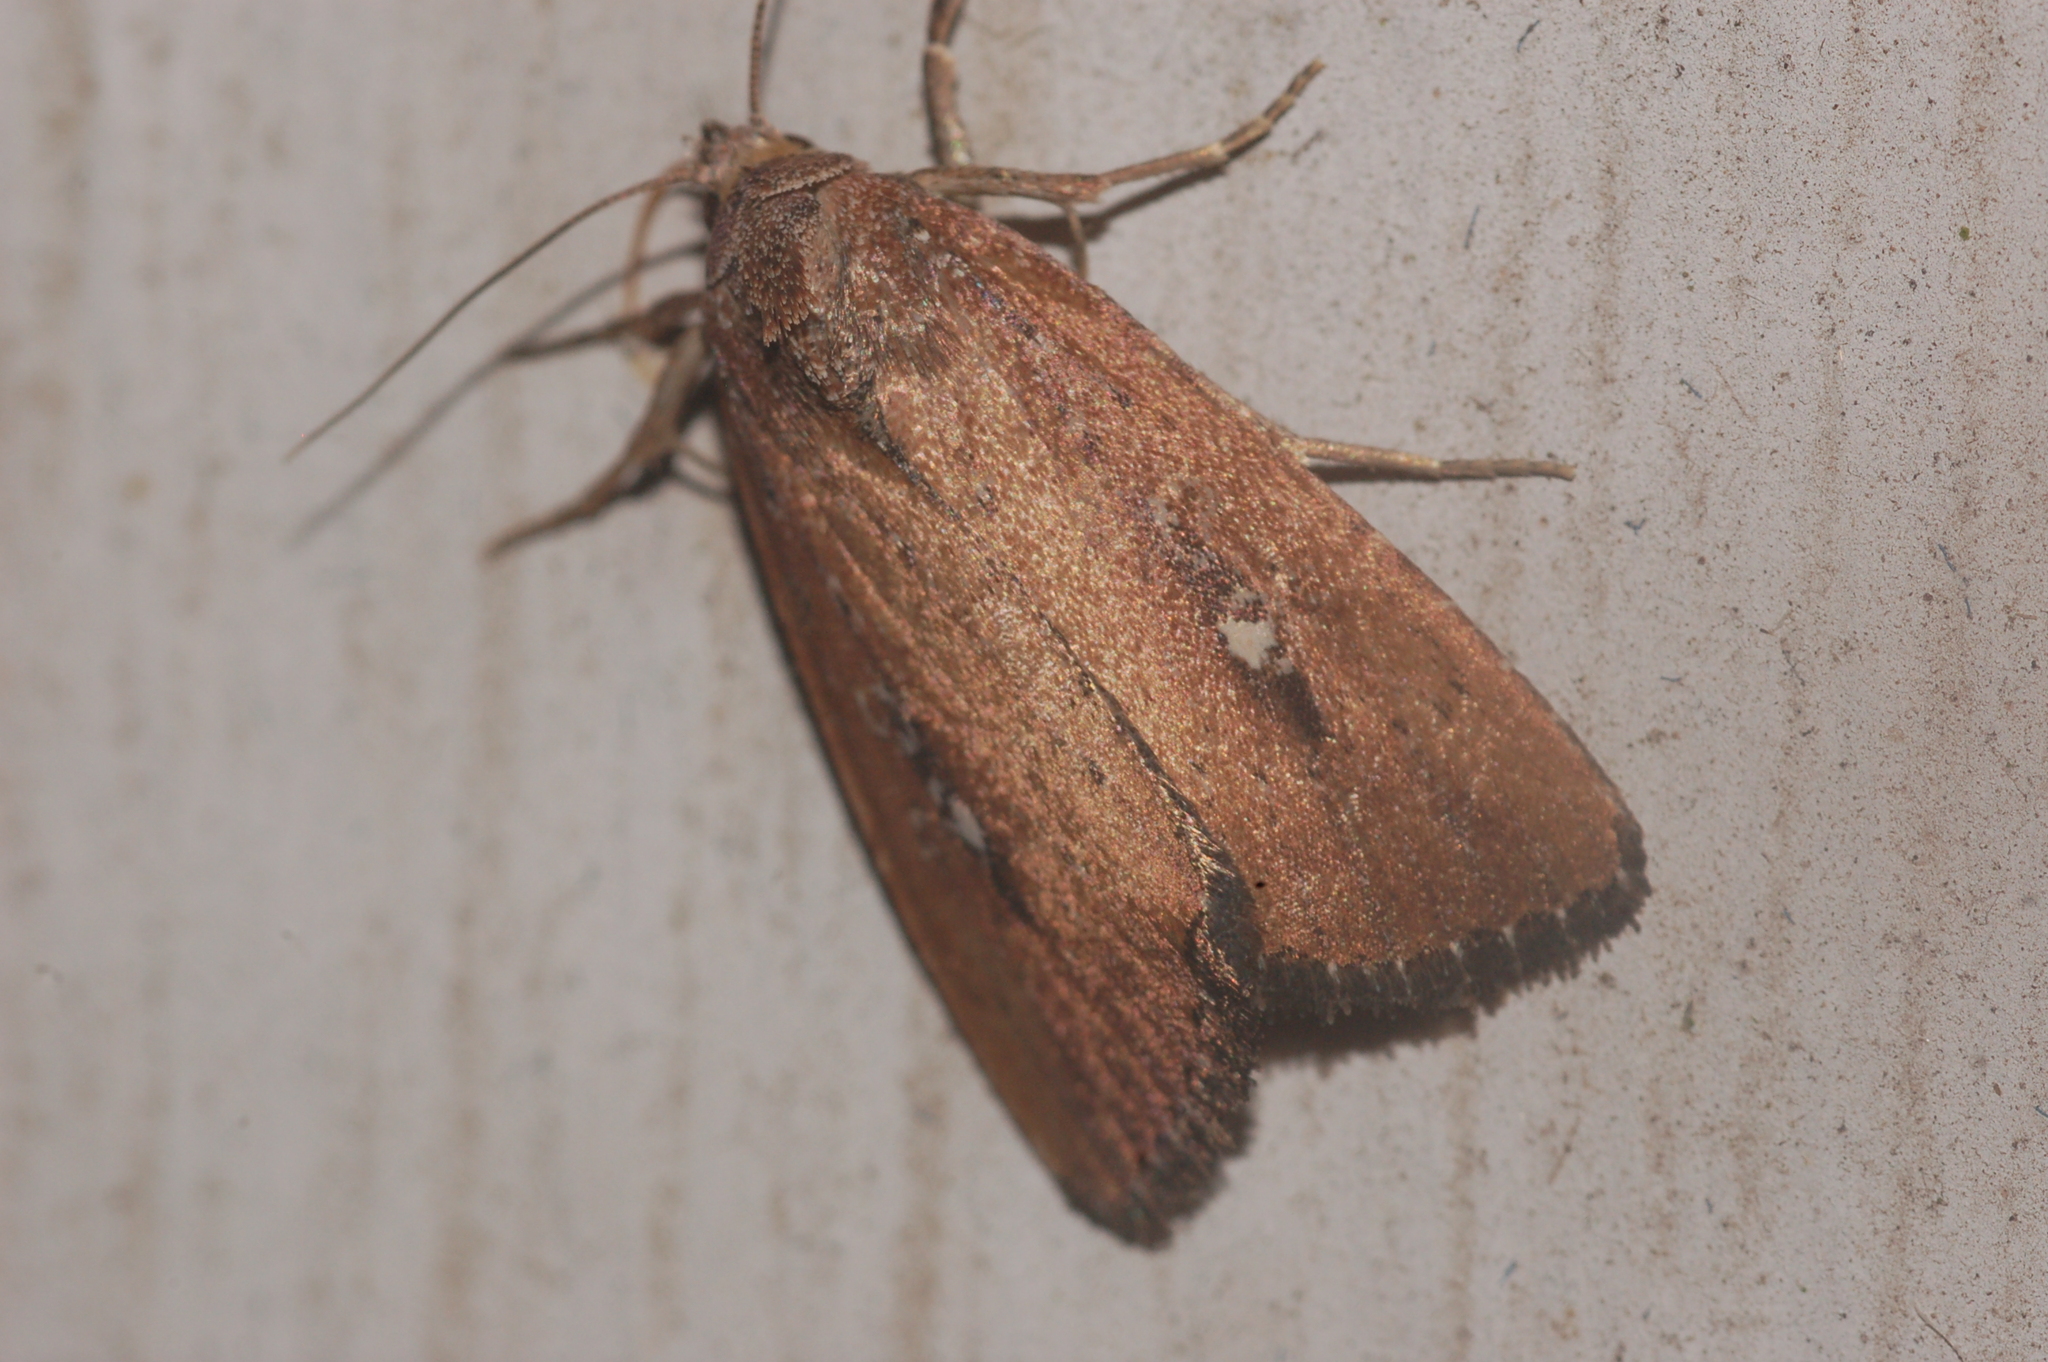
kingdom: Animalia
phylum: Arthropoda
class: Insecta
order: Lepidoptera
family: Noctuidae
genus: Condica
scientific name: Condica videns
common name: White-dotted groundling
